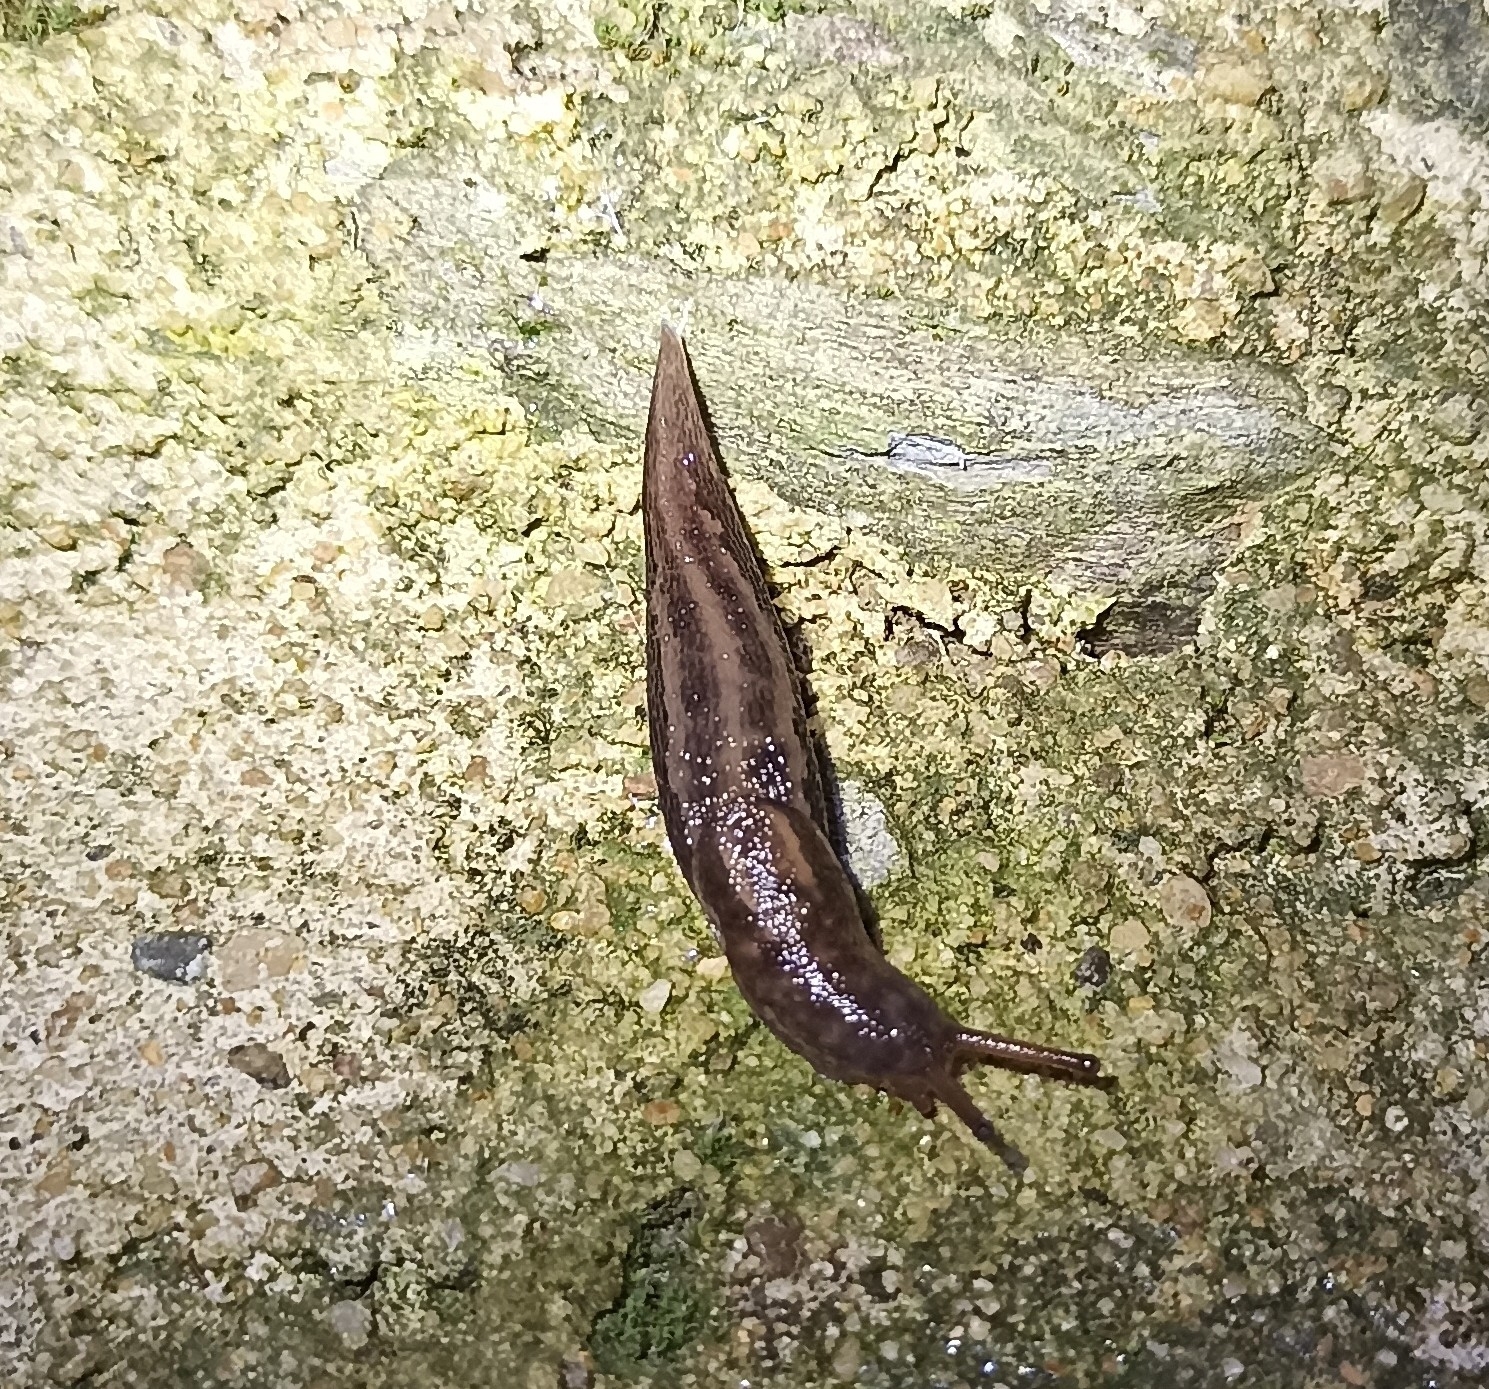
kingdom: Animalia
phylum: Mollusca
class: Gastropoda
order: Stylommatophora
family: Limacidae
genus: Limax
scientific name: Limax maximus
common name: Great grey slug
